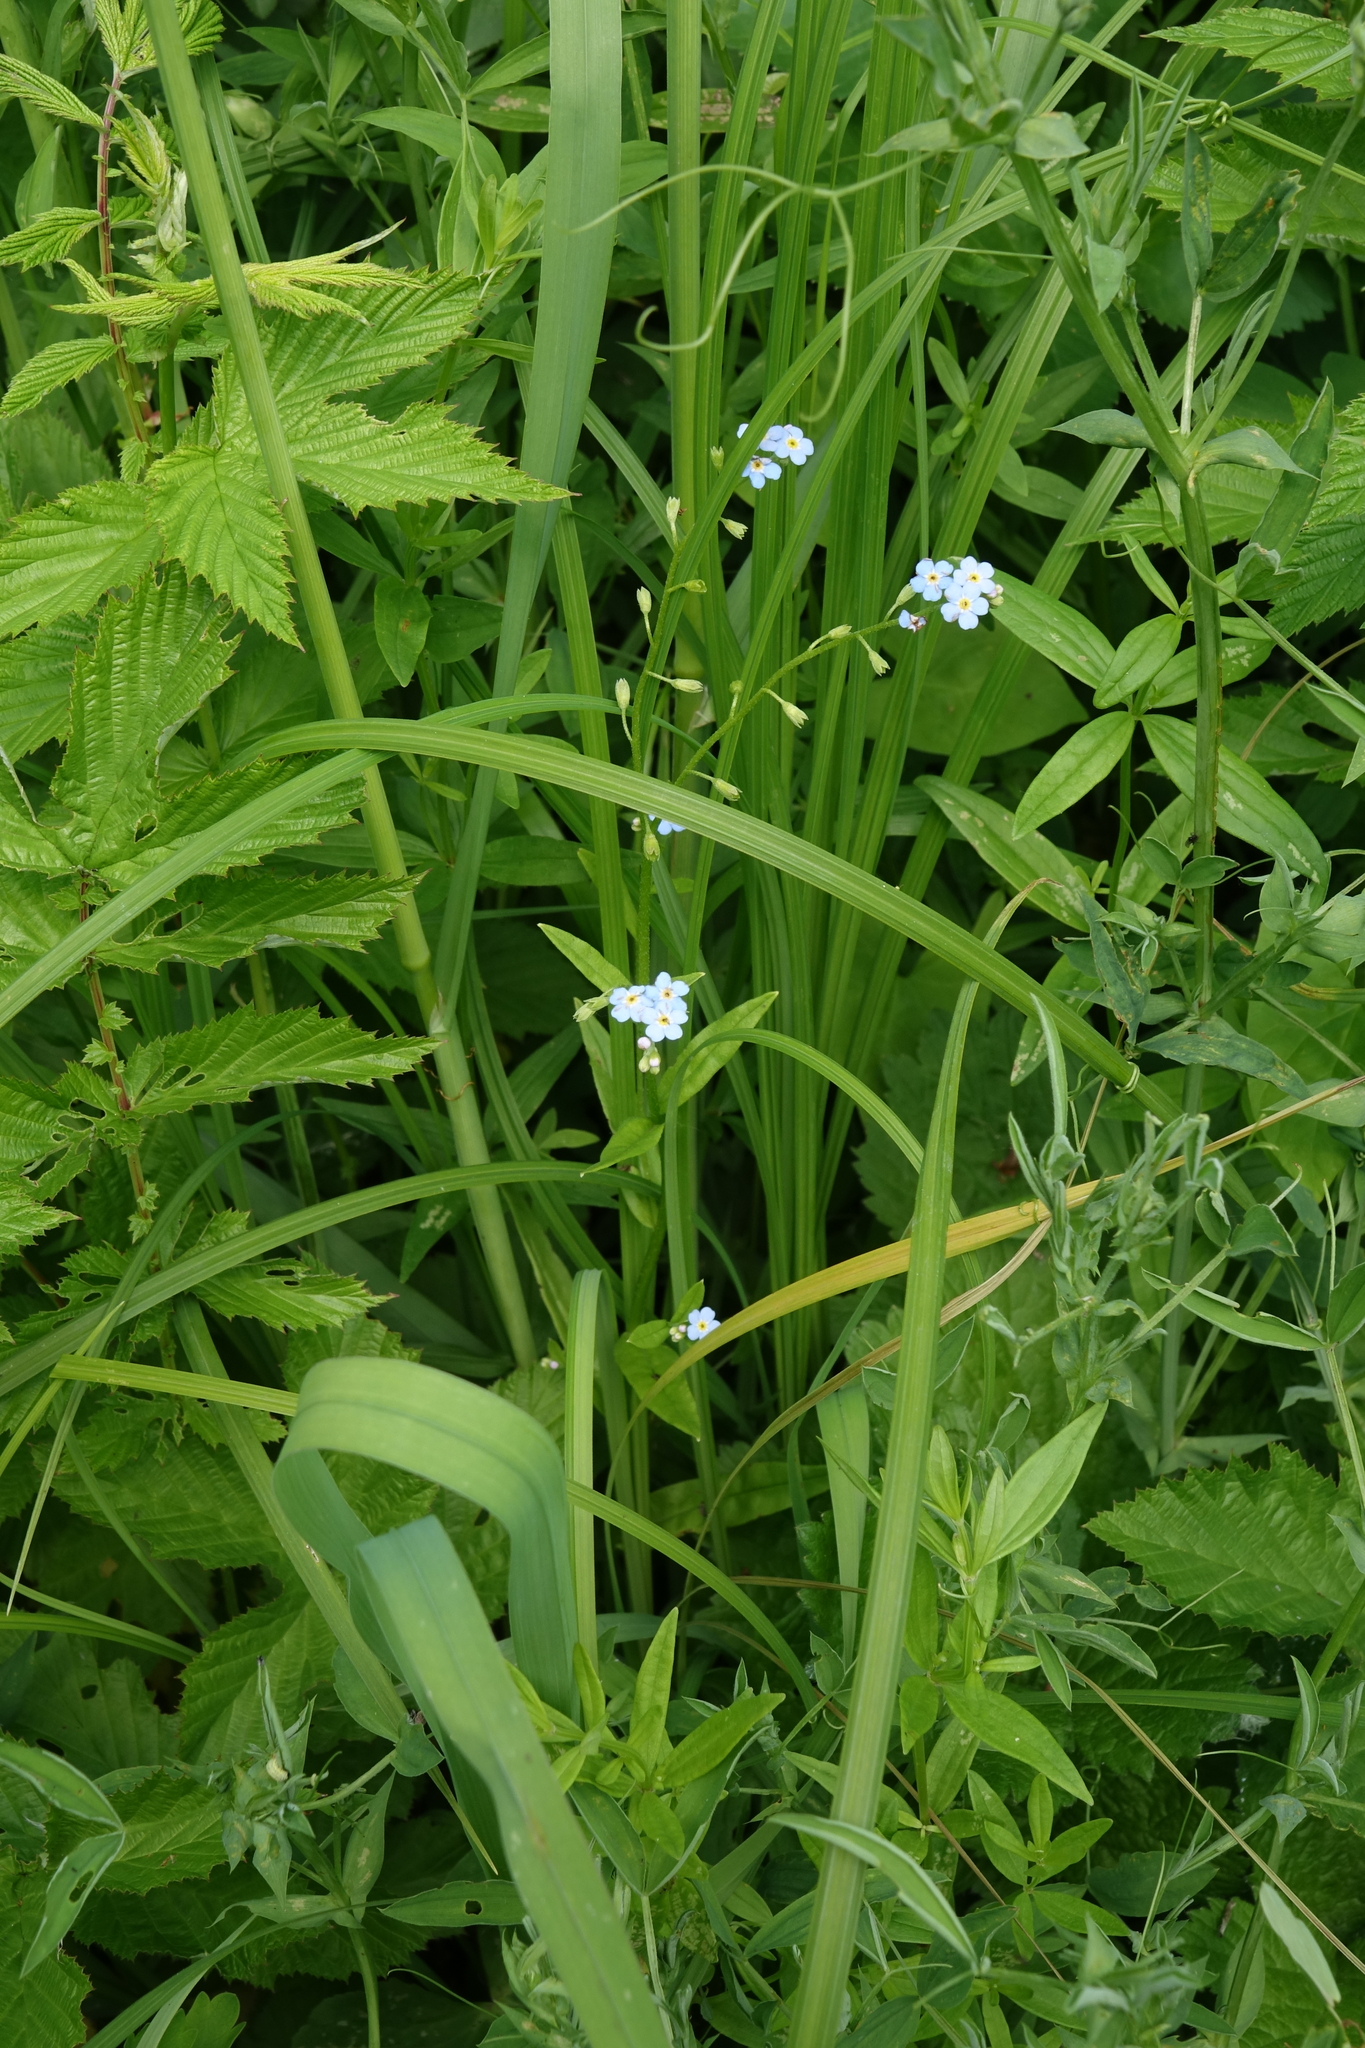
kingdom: Plantae
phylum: Tracheophyta
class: Magnoliopsida
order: Boraginales
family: Boraginaceae
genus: Myosotis
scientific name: Myosotis scorpioides
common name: Water forget-me-not
